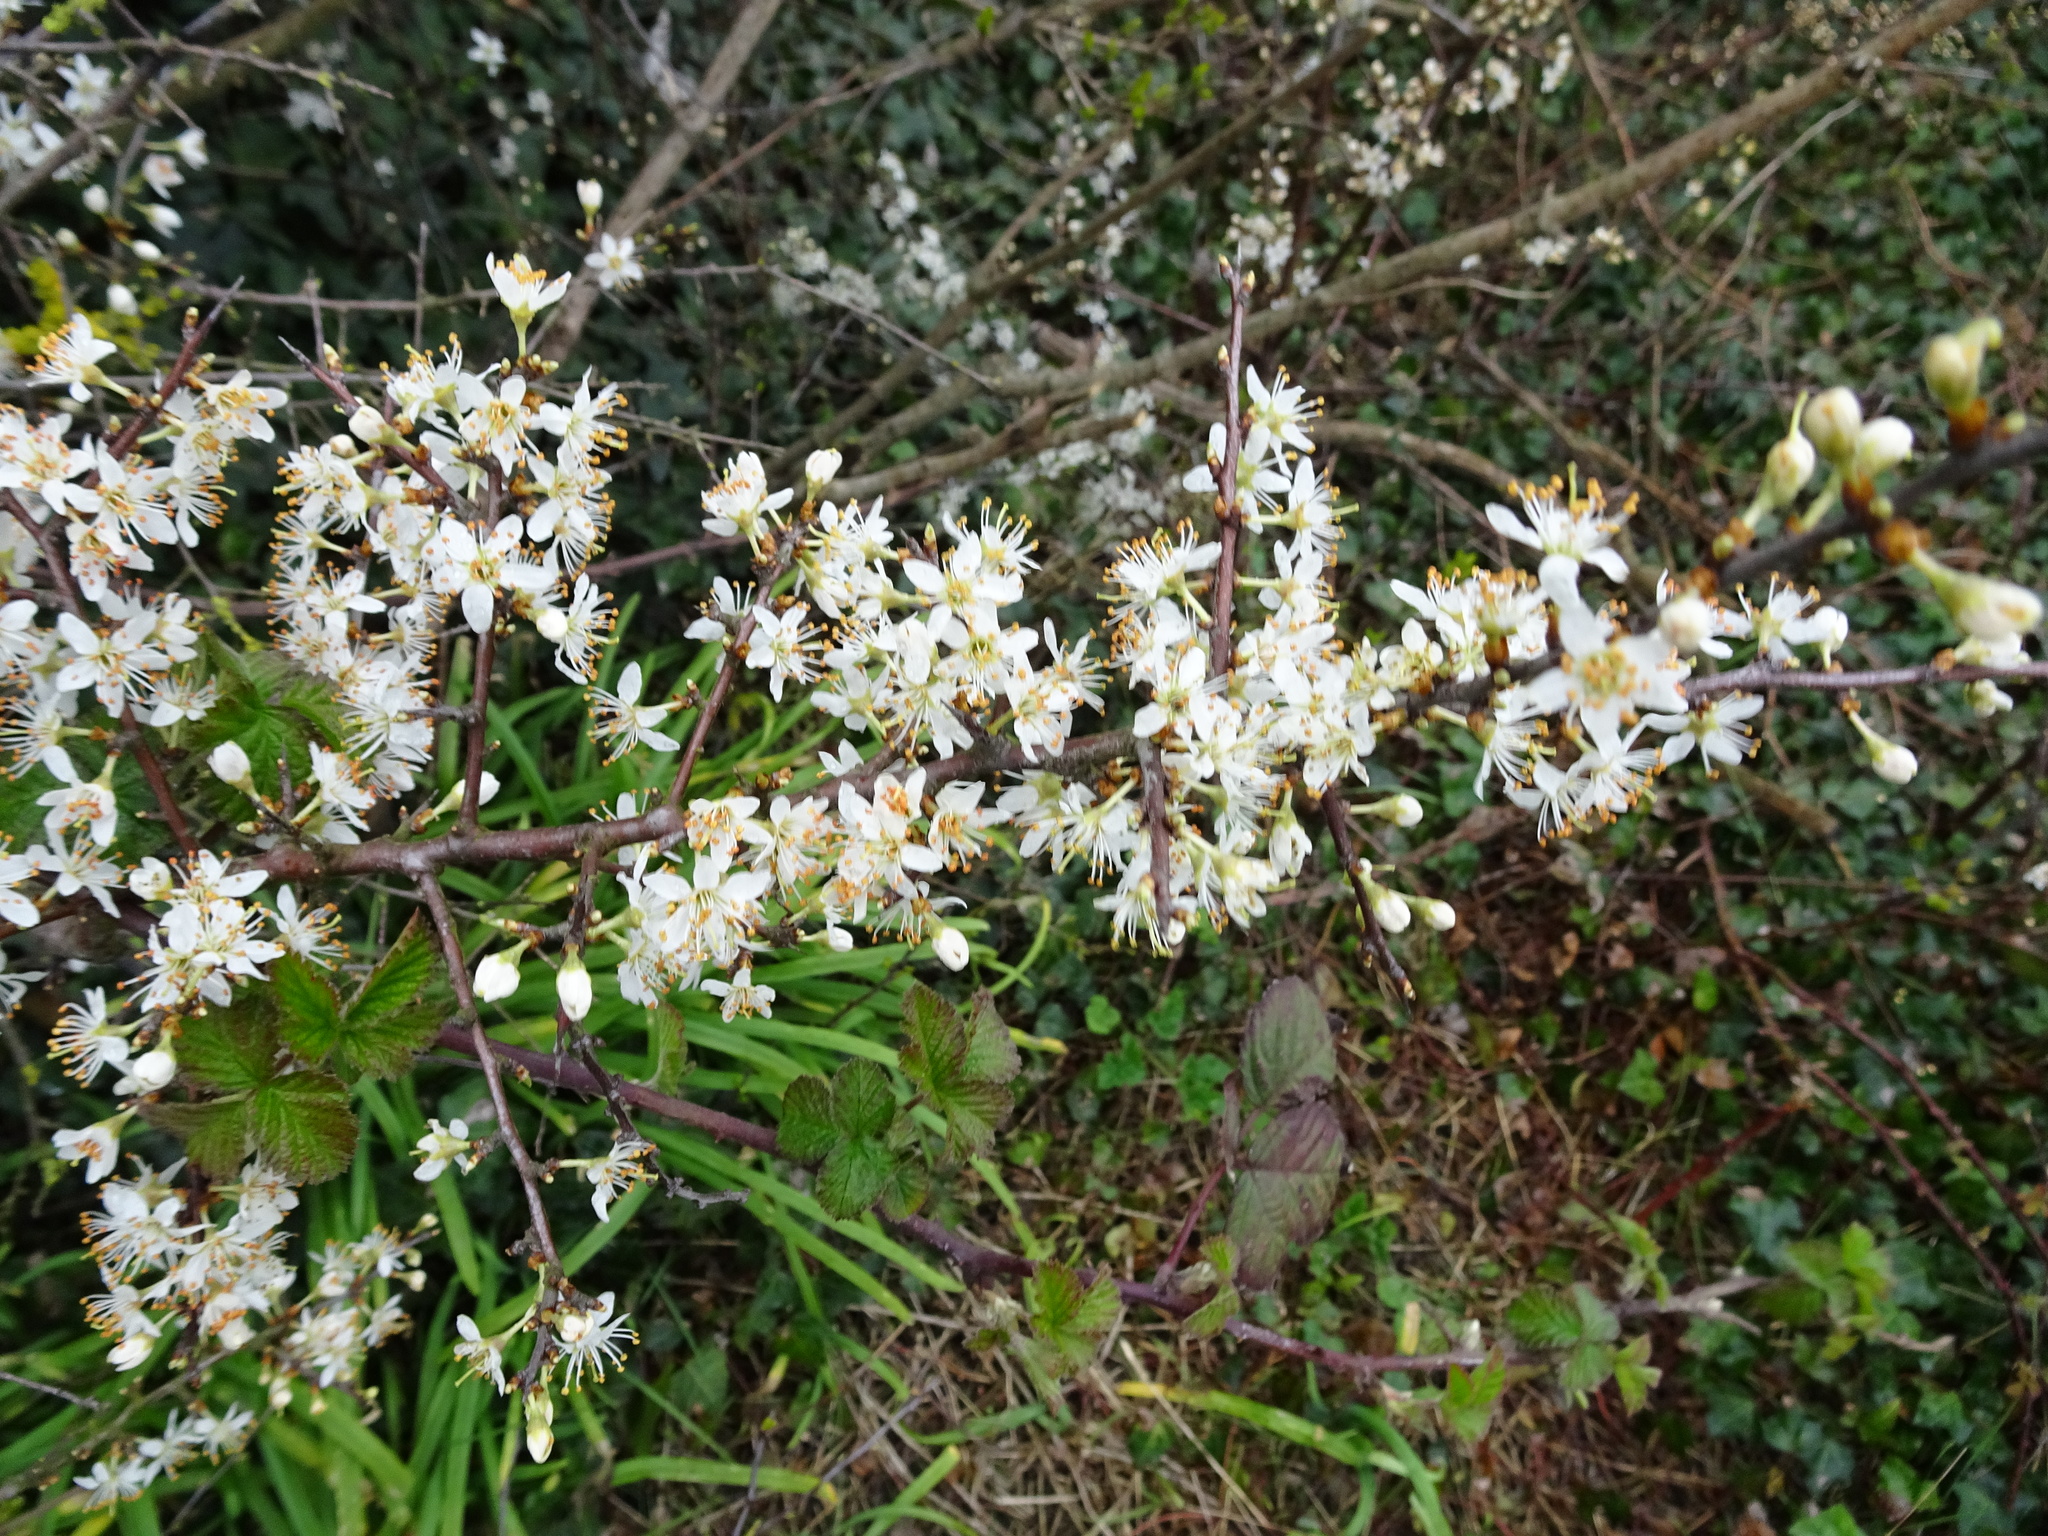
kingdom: Plantae
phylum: Tracheophyta
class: Magnoliopsida
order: Rosales
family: Rosaceae
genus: Prunus
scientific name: Prunus spinosa
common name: Blackthorn
